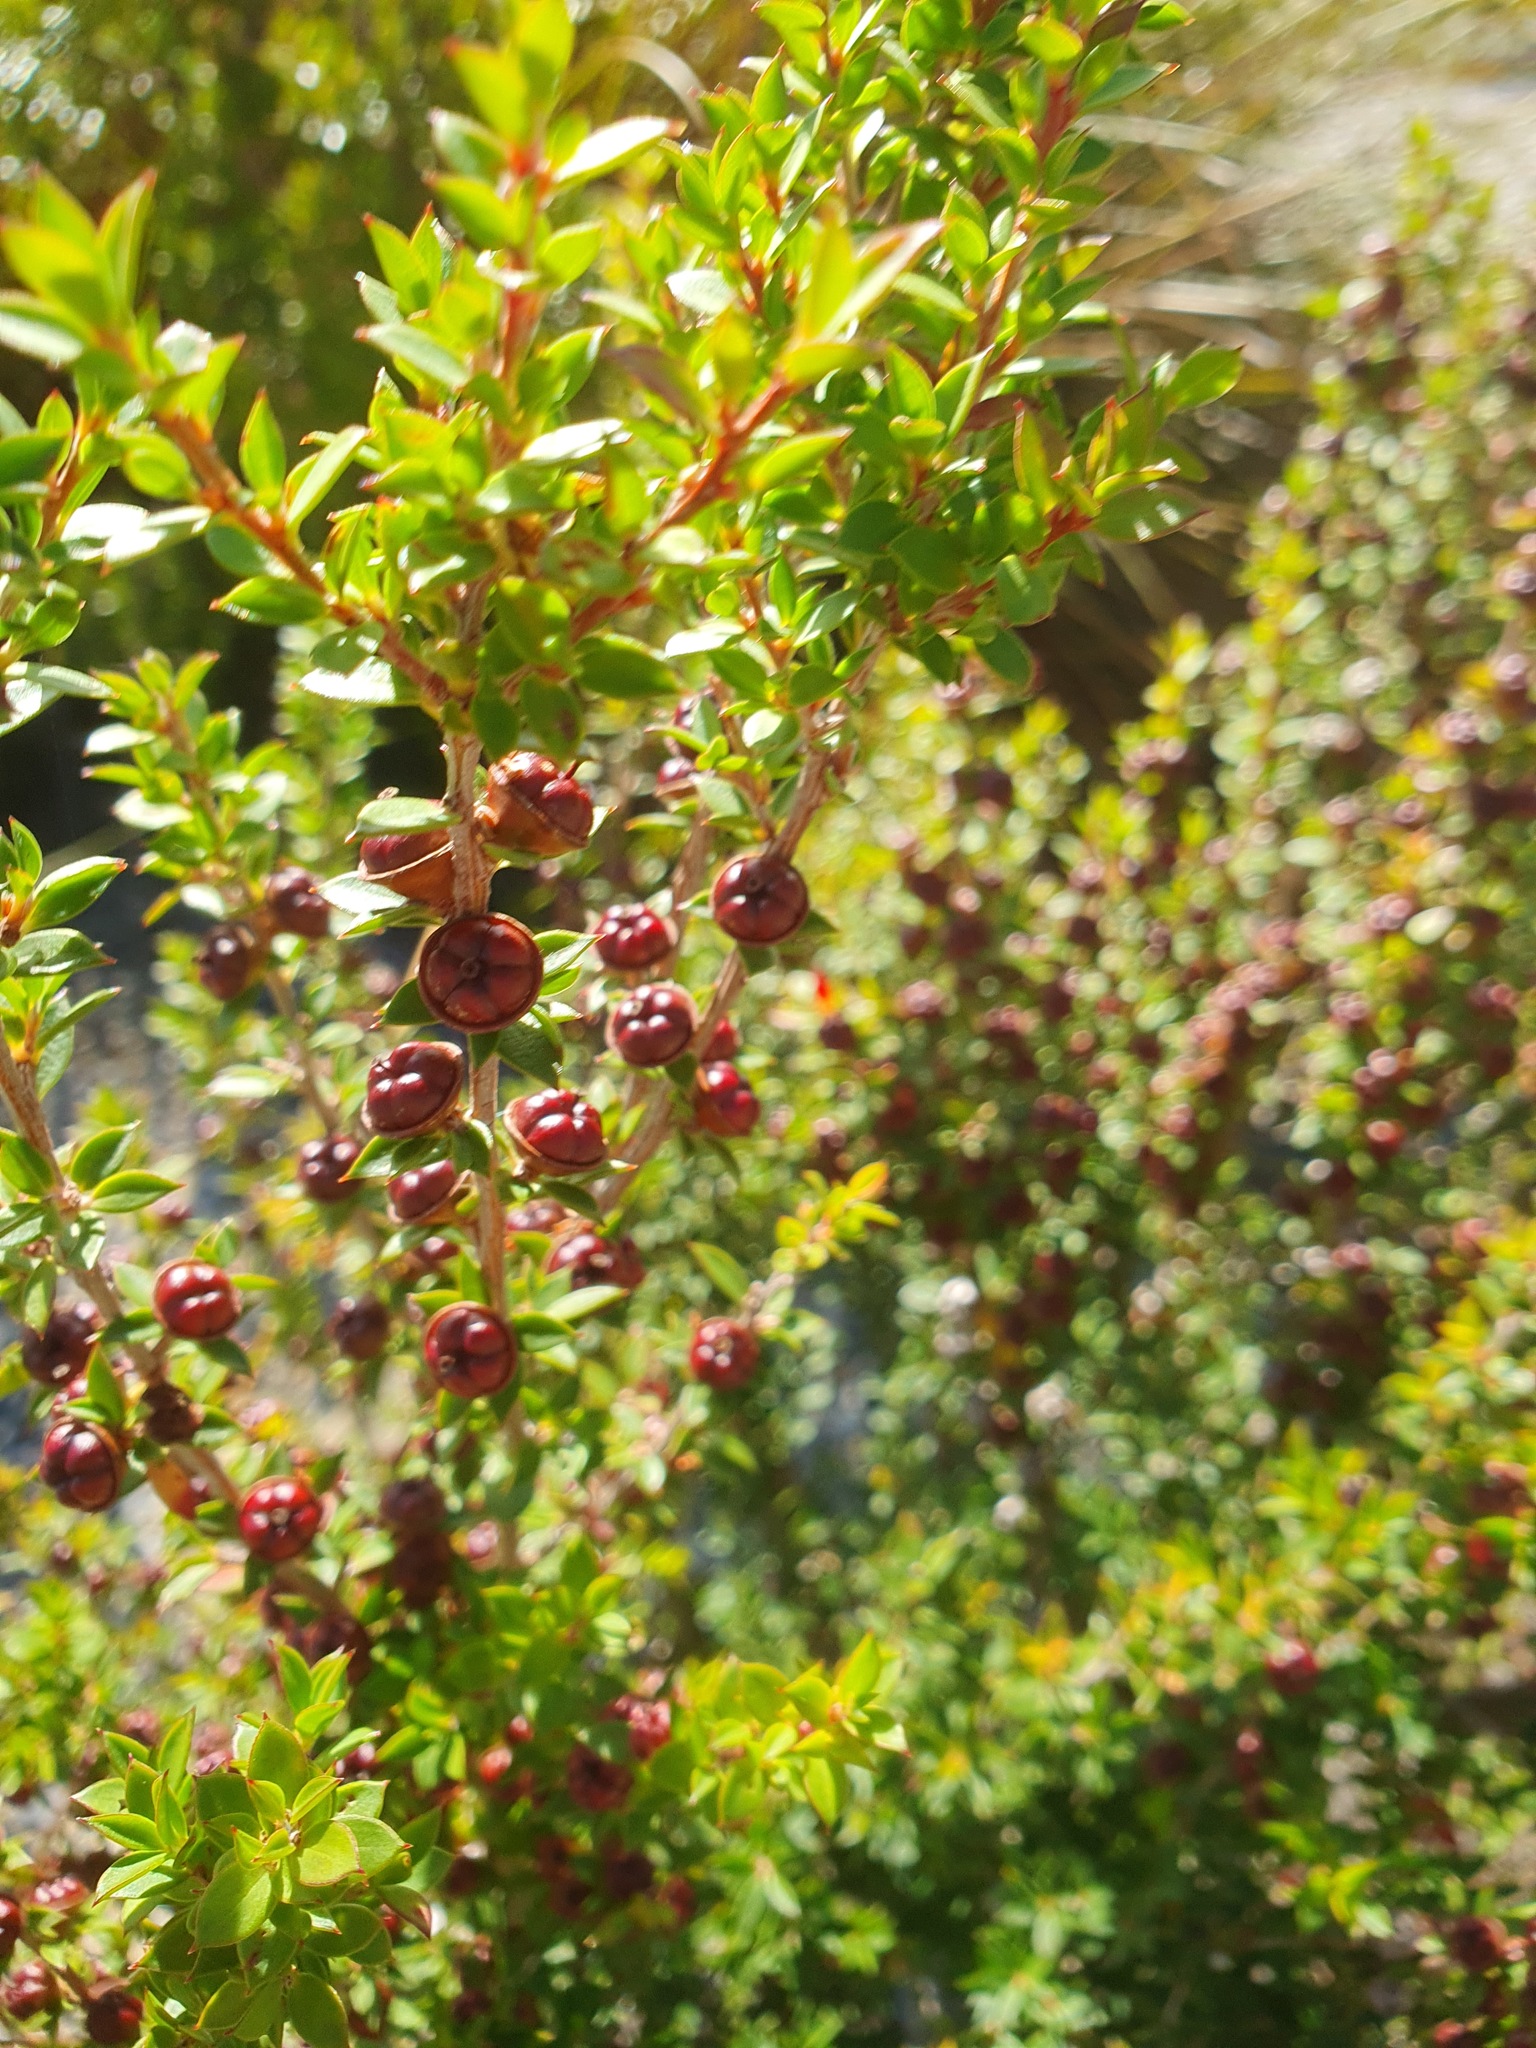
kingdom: Plantae
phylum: Tracheophyta
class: Magnoliopsida
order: Myrtales
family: Myrtaceae
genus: Leptospermum
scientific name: Leptospermum scoparium
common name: Broom tea-tree
